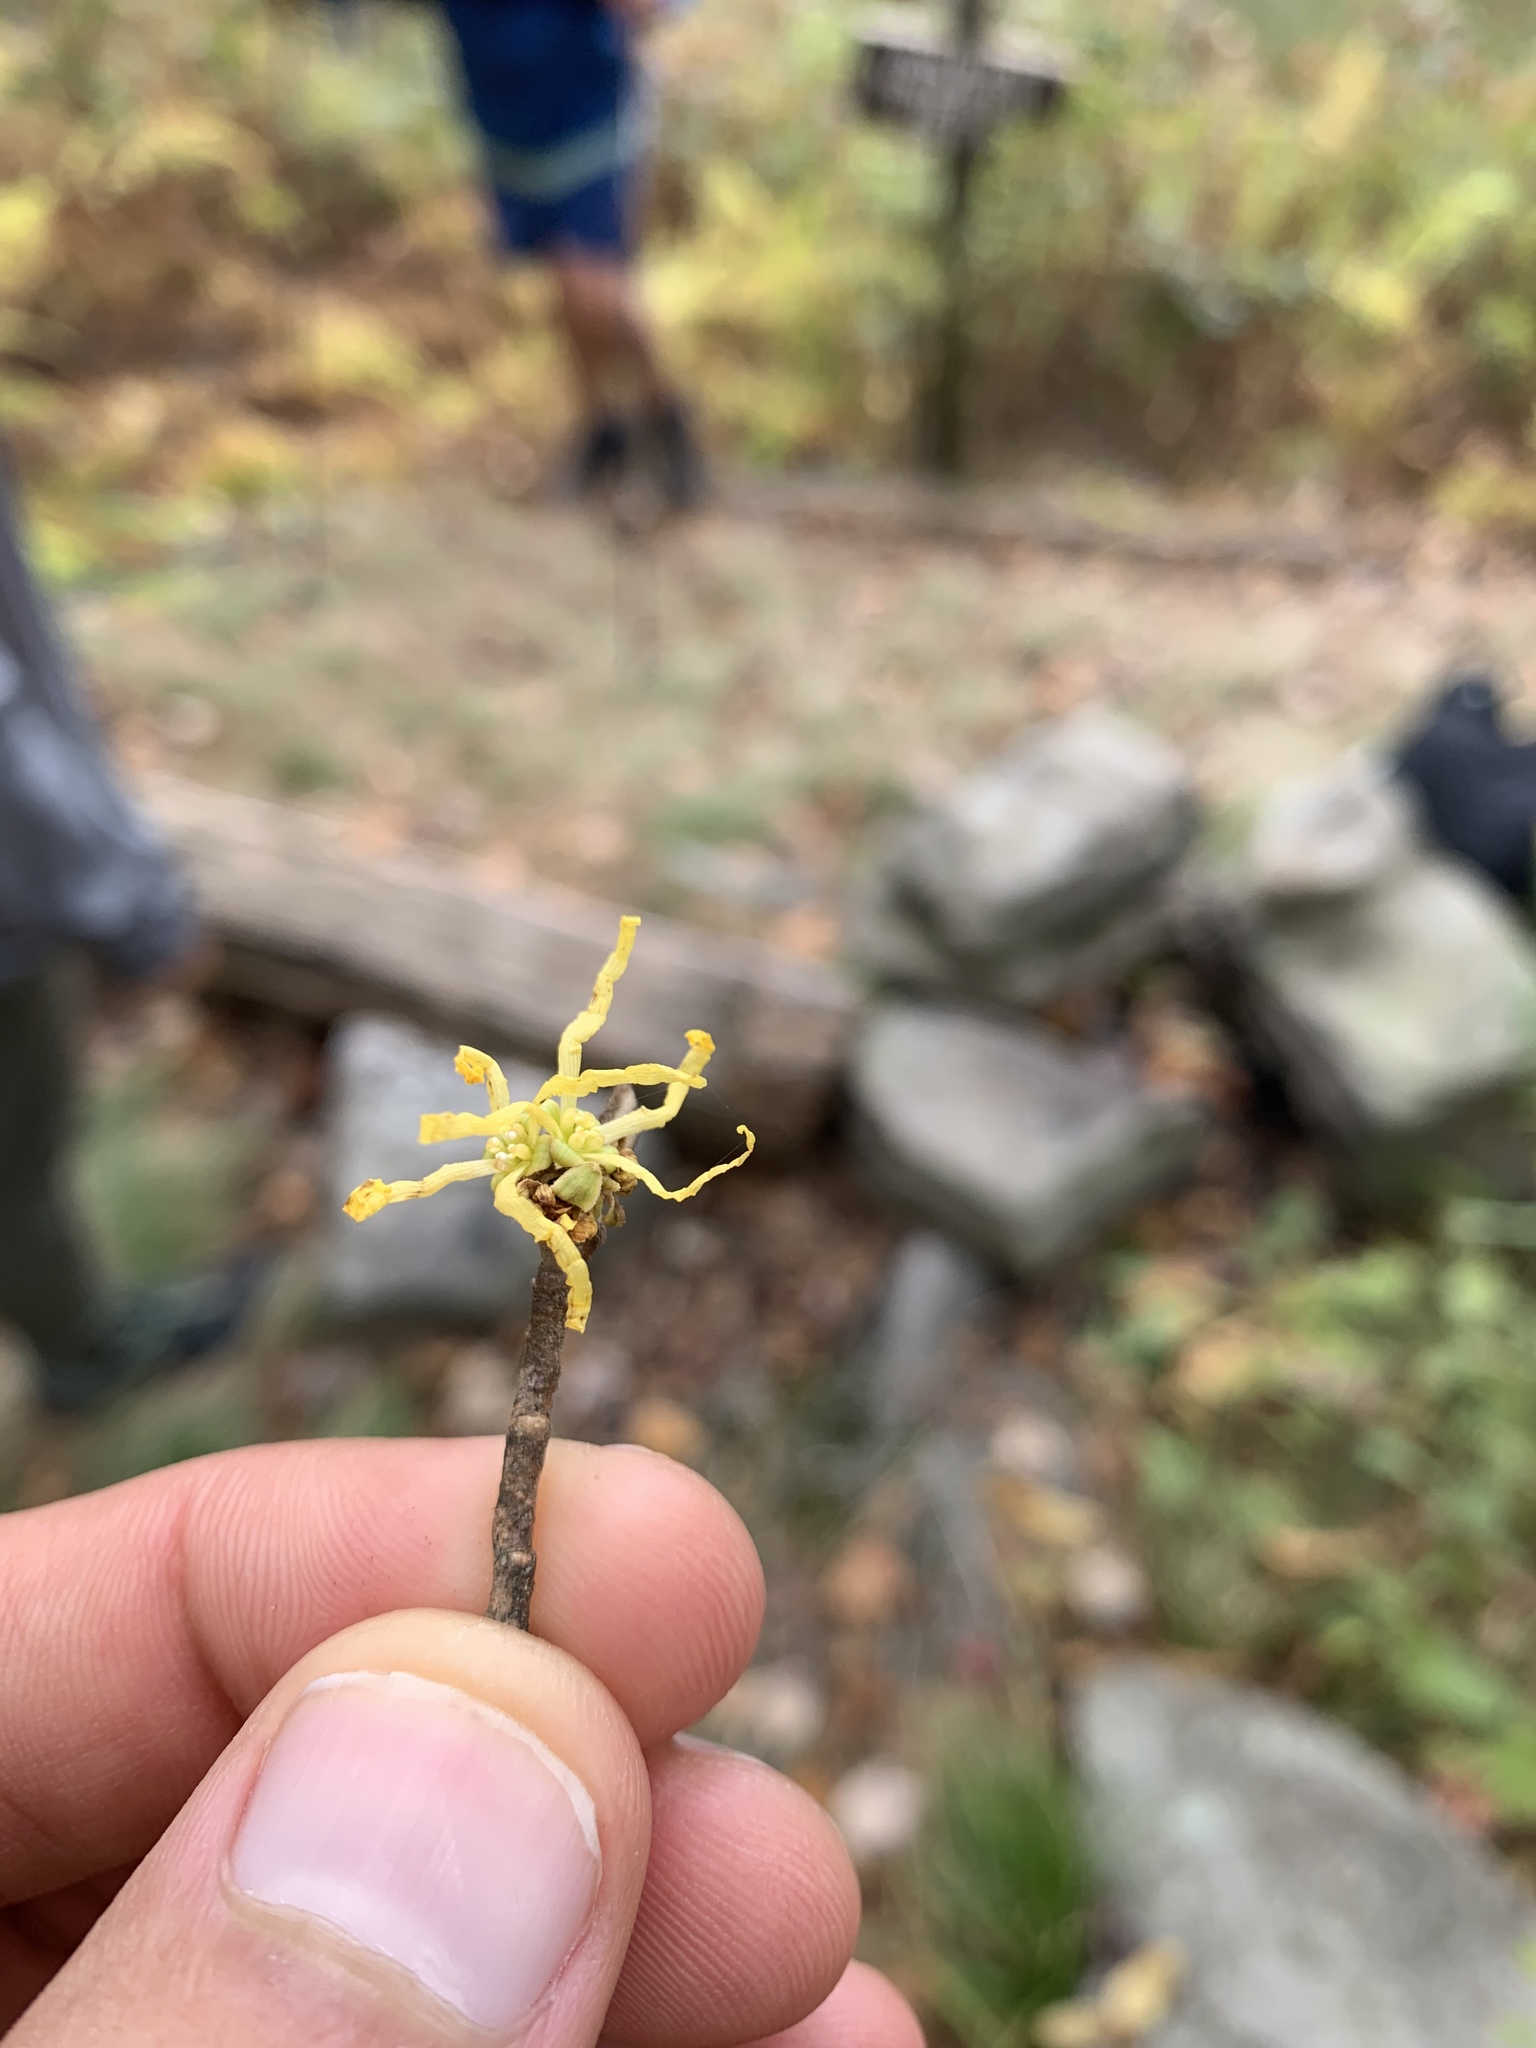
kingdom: Plantae
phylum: Tracheophyta
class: Magnoliopsida
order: Saxifragales
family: Hamamelidaceae
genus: Hamamelis
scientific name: Hamamelis virginiana
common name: Witch-hazel
